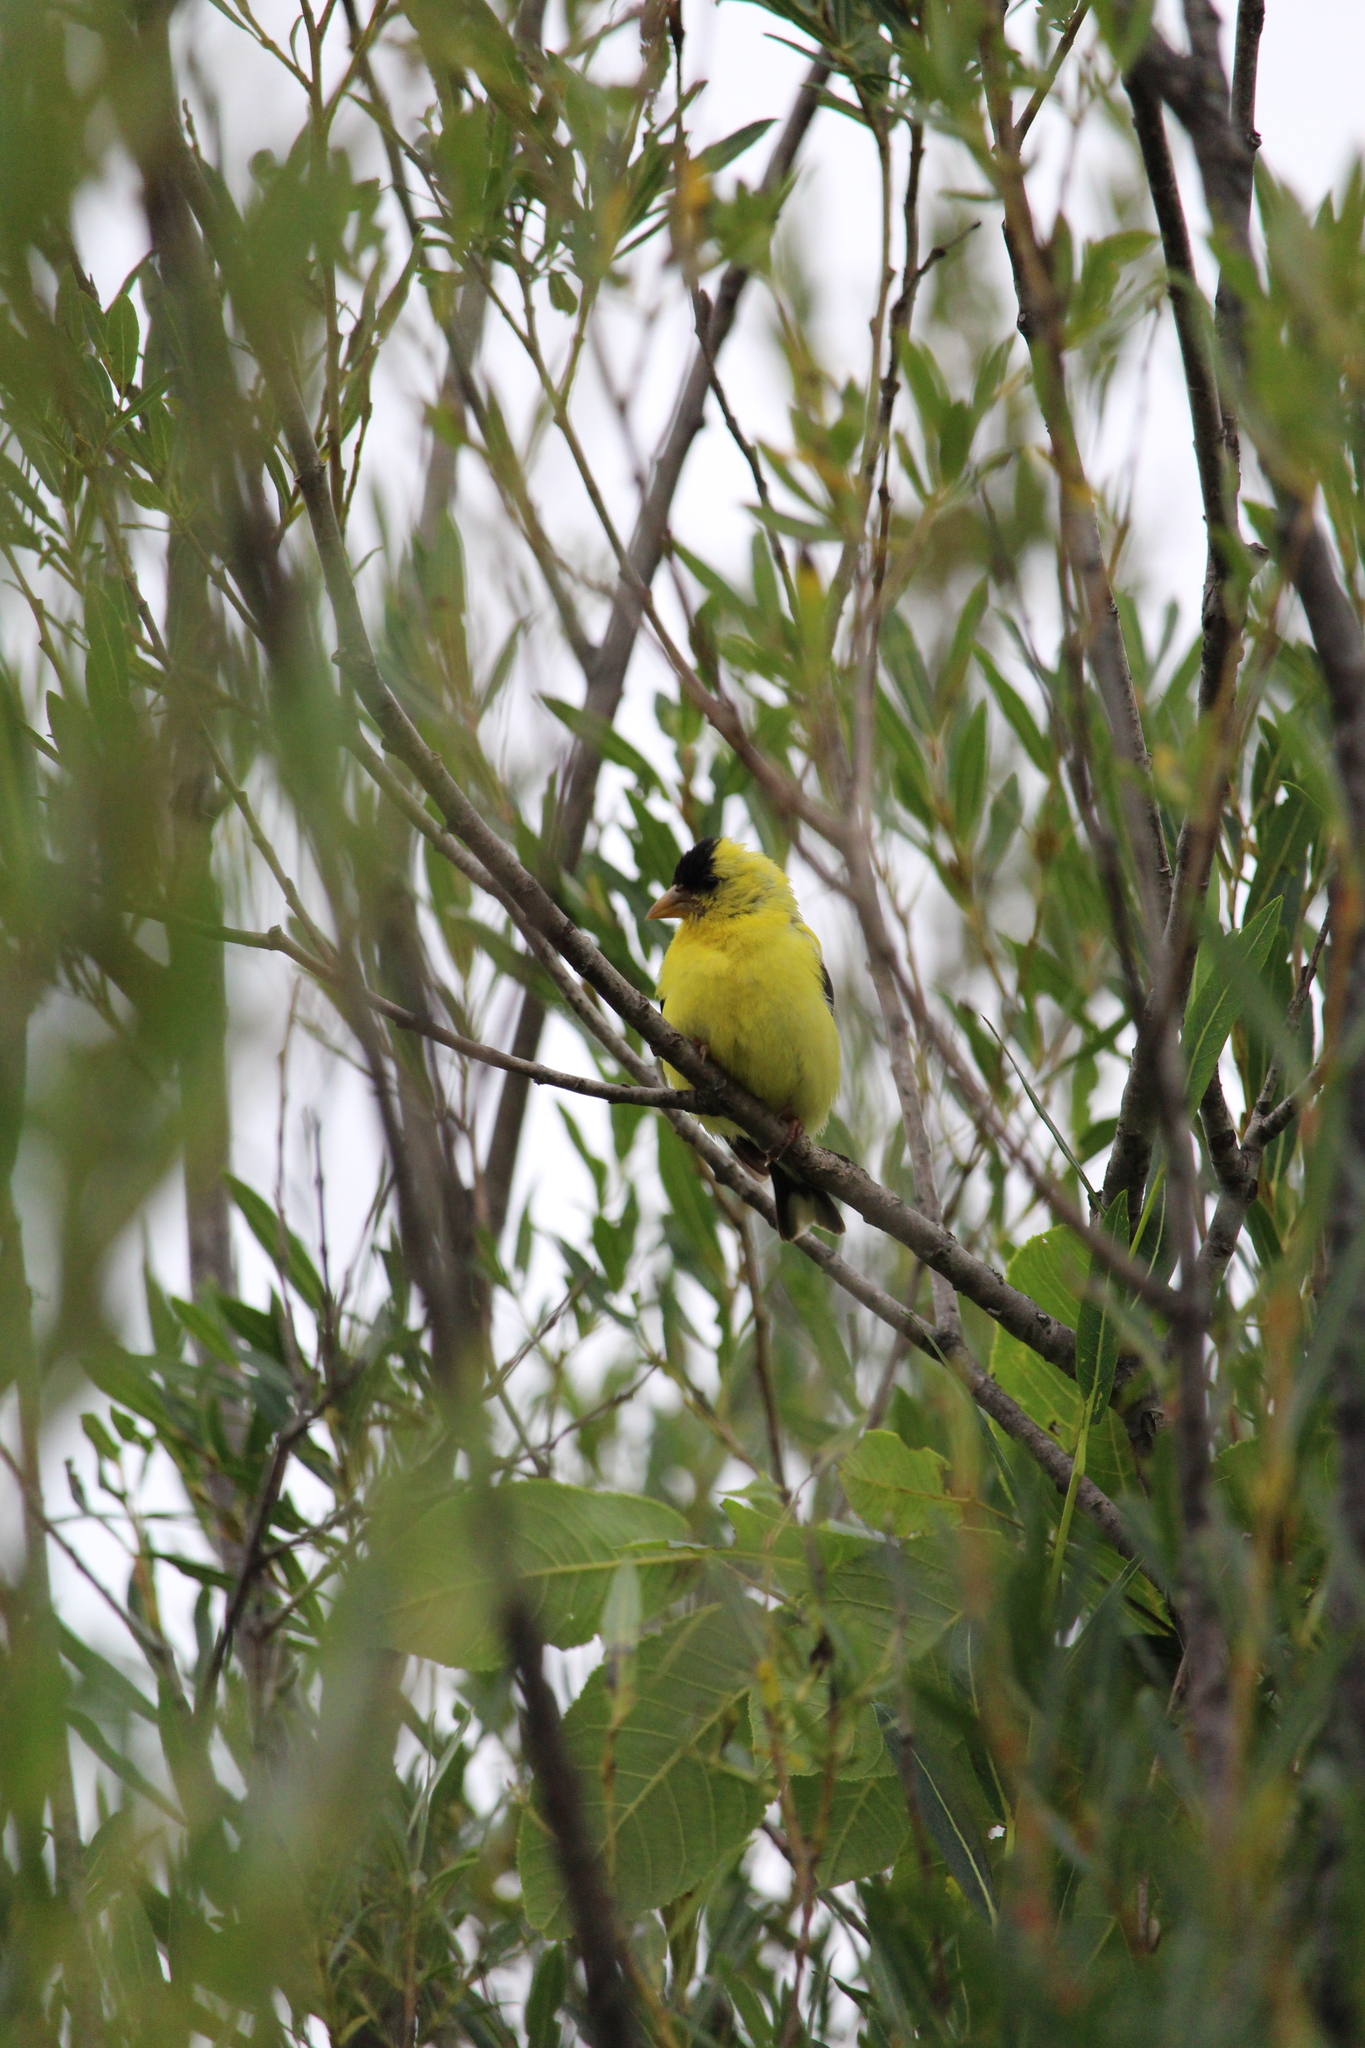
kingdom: Animalia
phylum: Chordata
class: Aves
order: Passeriformes
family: Fringillidae
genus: Spinus
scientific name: Spinus tristis
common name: American goldfinch
